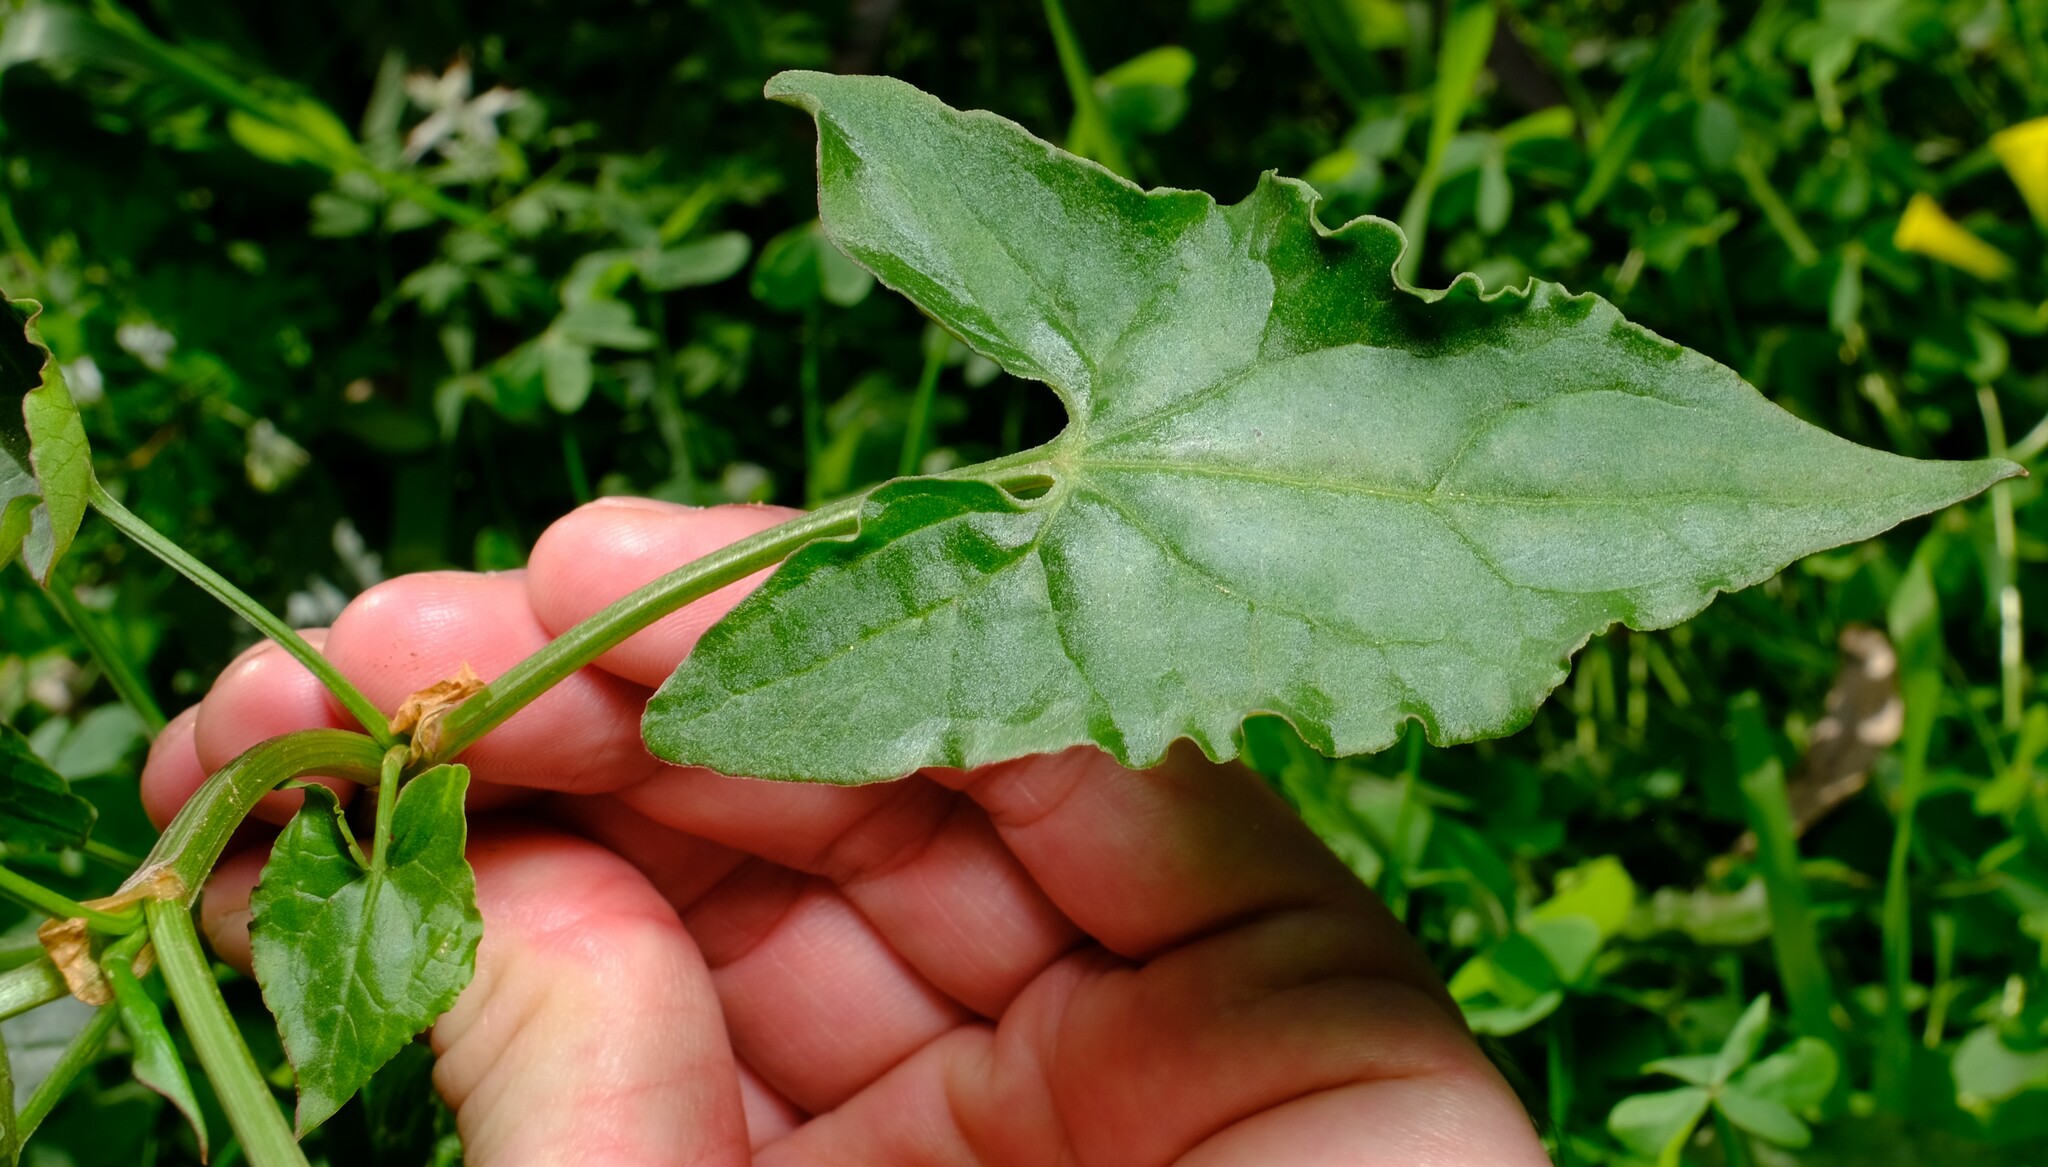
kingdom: Plantae
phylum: Tracheophyta
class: Magnoliopsida
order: Caryophyllales
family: Polygonaceae
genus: Rumex
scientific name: Rumex sagittatus
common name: Climbing dock
